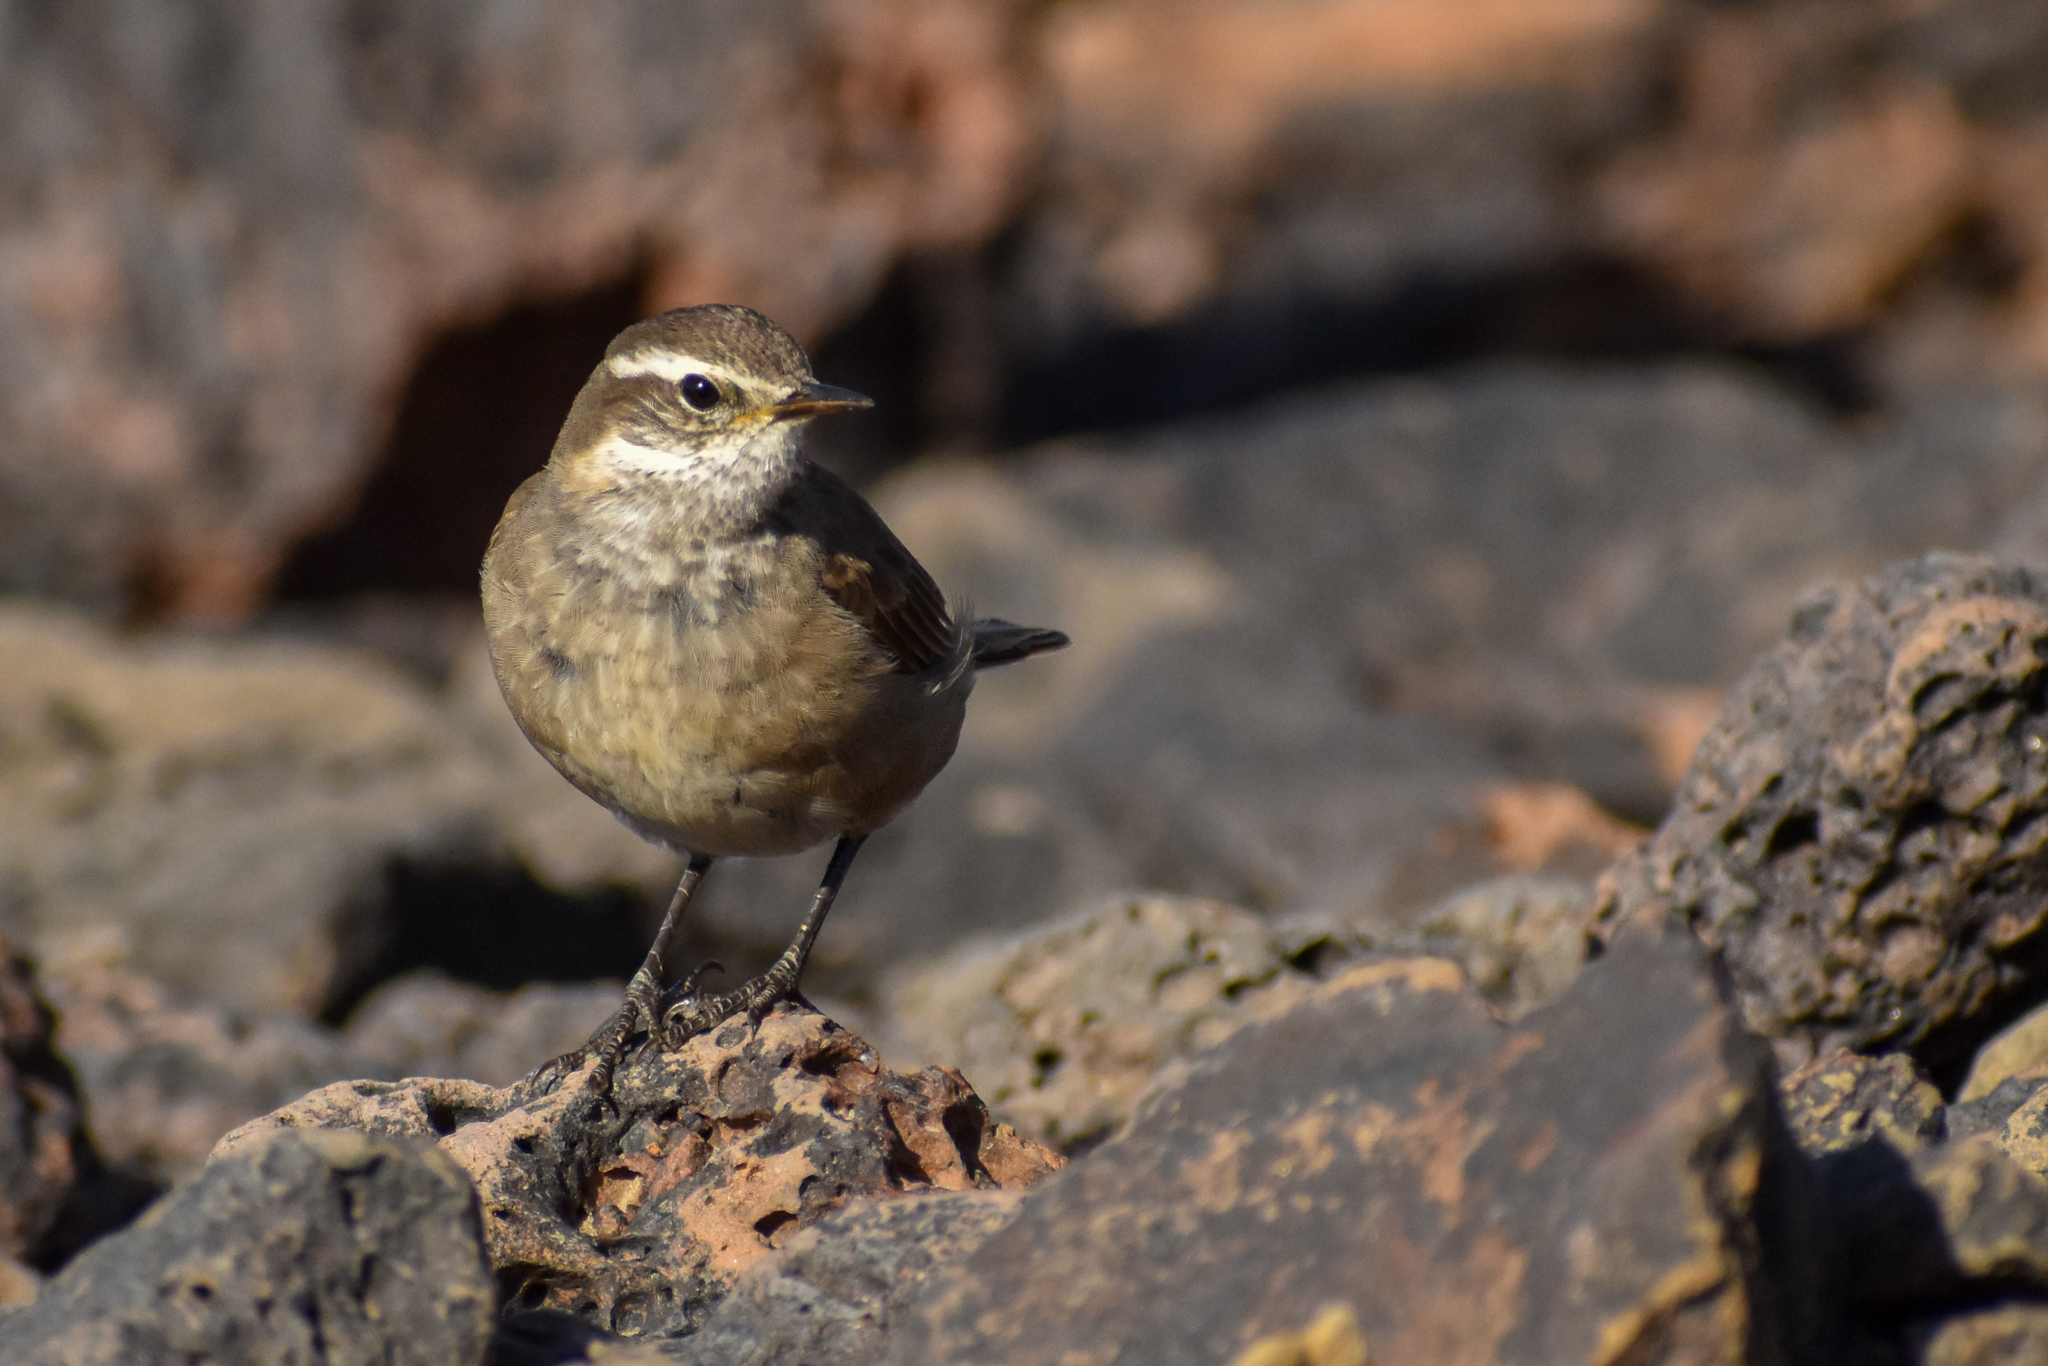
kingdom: Animalia
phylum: Chordata
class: Aves
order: Passeriformes
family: Furnariidae
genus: Cinclodes
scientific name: Cinclodes fuscus
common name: Buff-winged cinclodes
